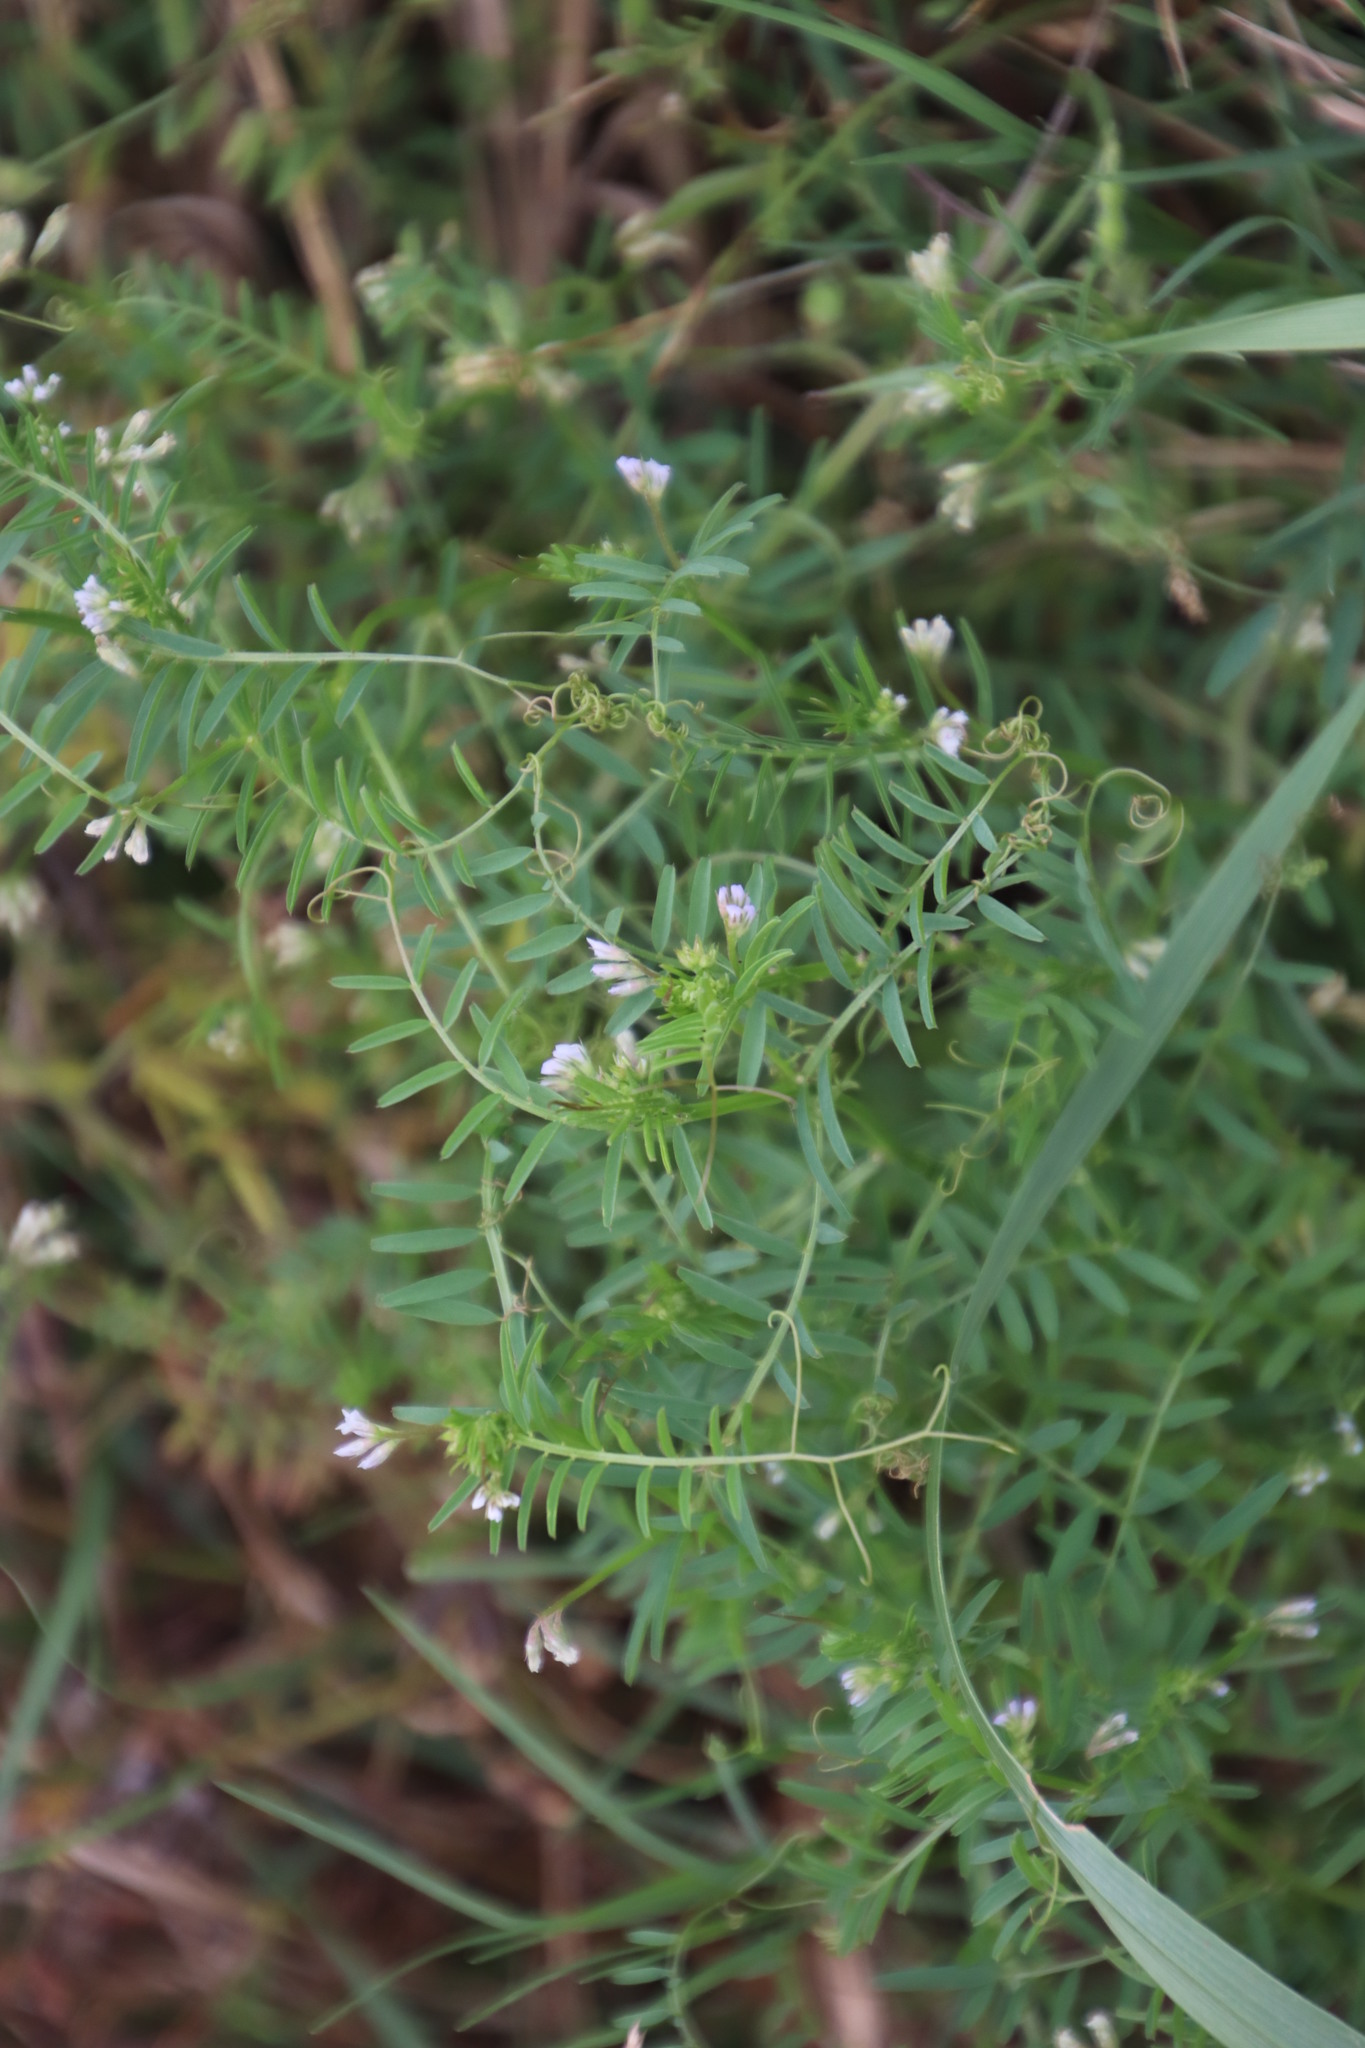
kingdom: Plantae
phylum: Tracheophyta
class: Magnoliopsida
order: Fabales
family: Fabaceae
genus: Vicia
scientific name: Vicia hirsuta
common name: Tiny vetch
